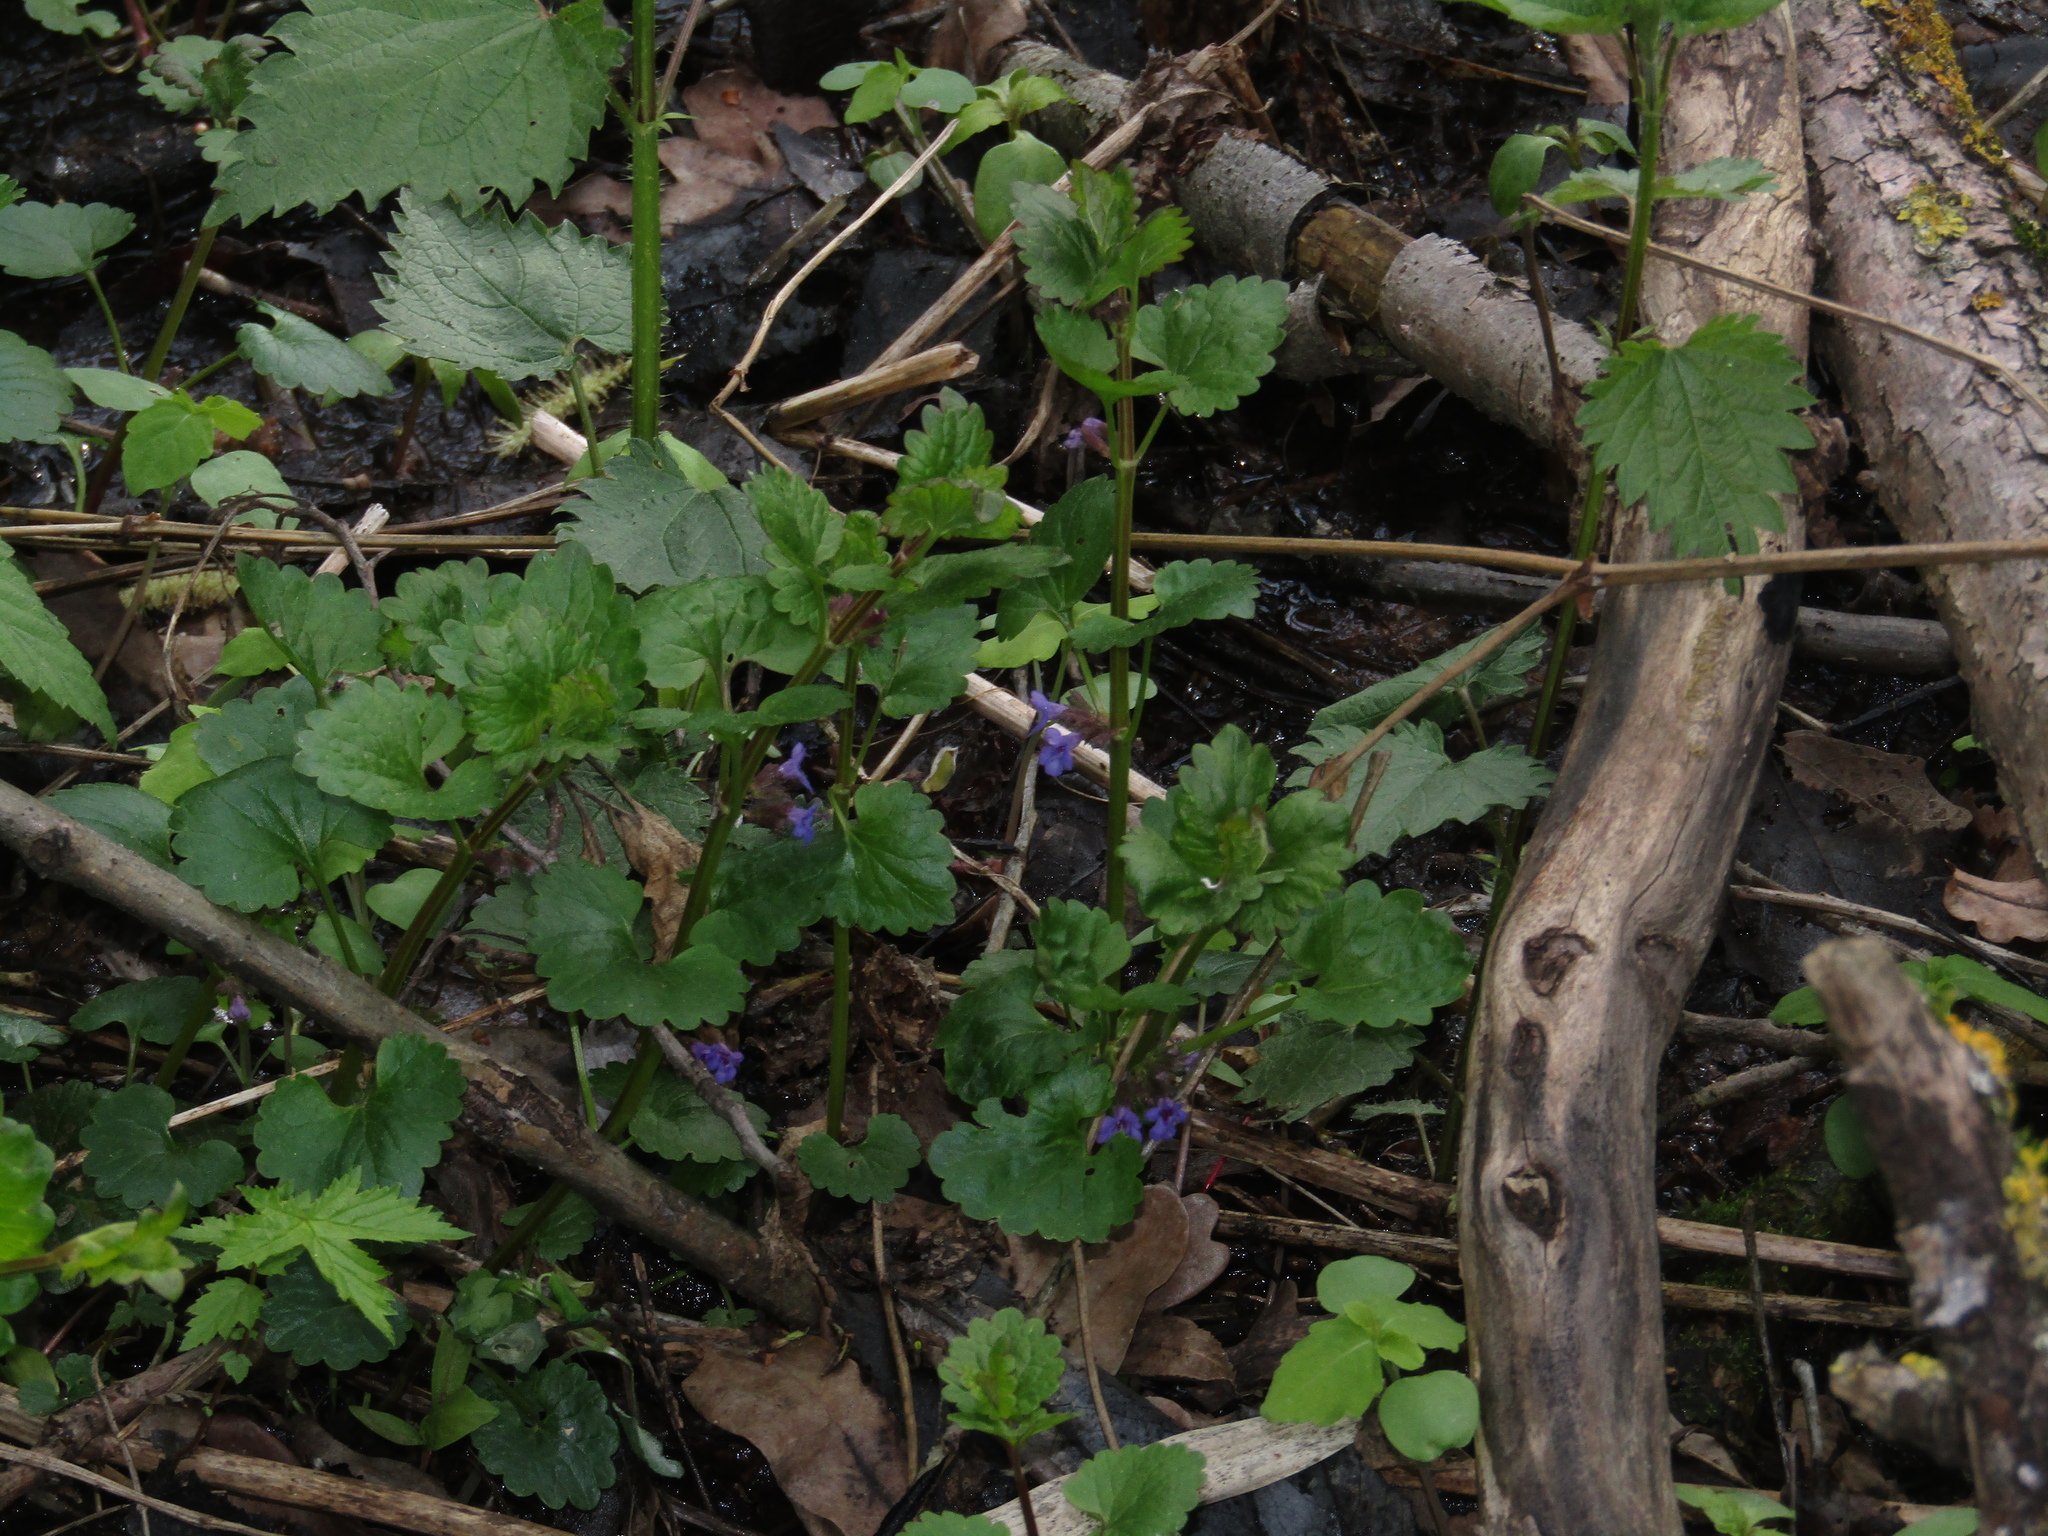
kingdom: Plantae
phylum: Tracheophyta
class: Magnoliopsida
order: Lamiales
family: Lamiaceae
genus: Glechoma
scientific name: Glechoma hederacea
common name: Ground ivy
